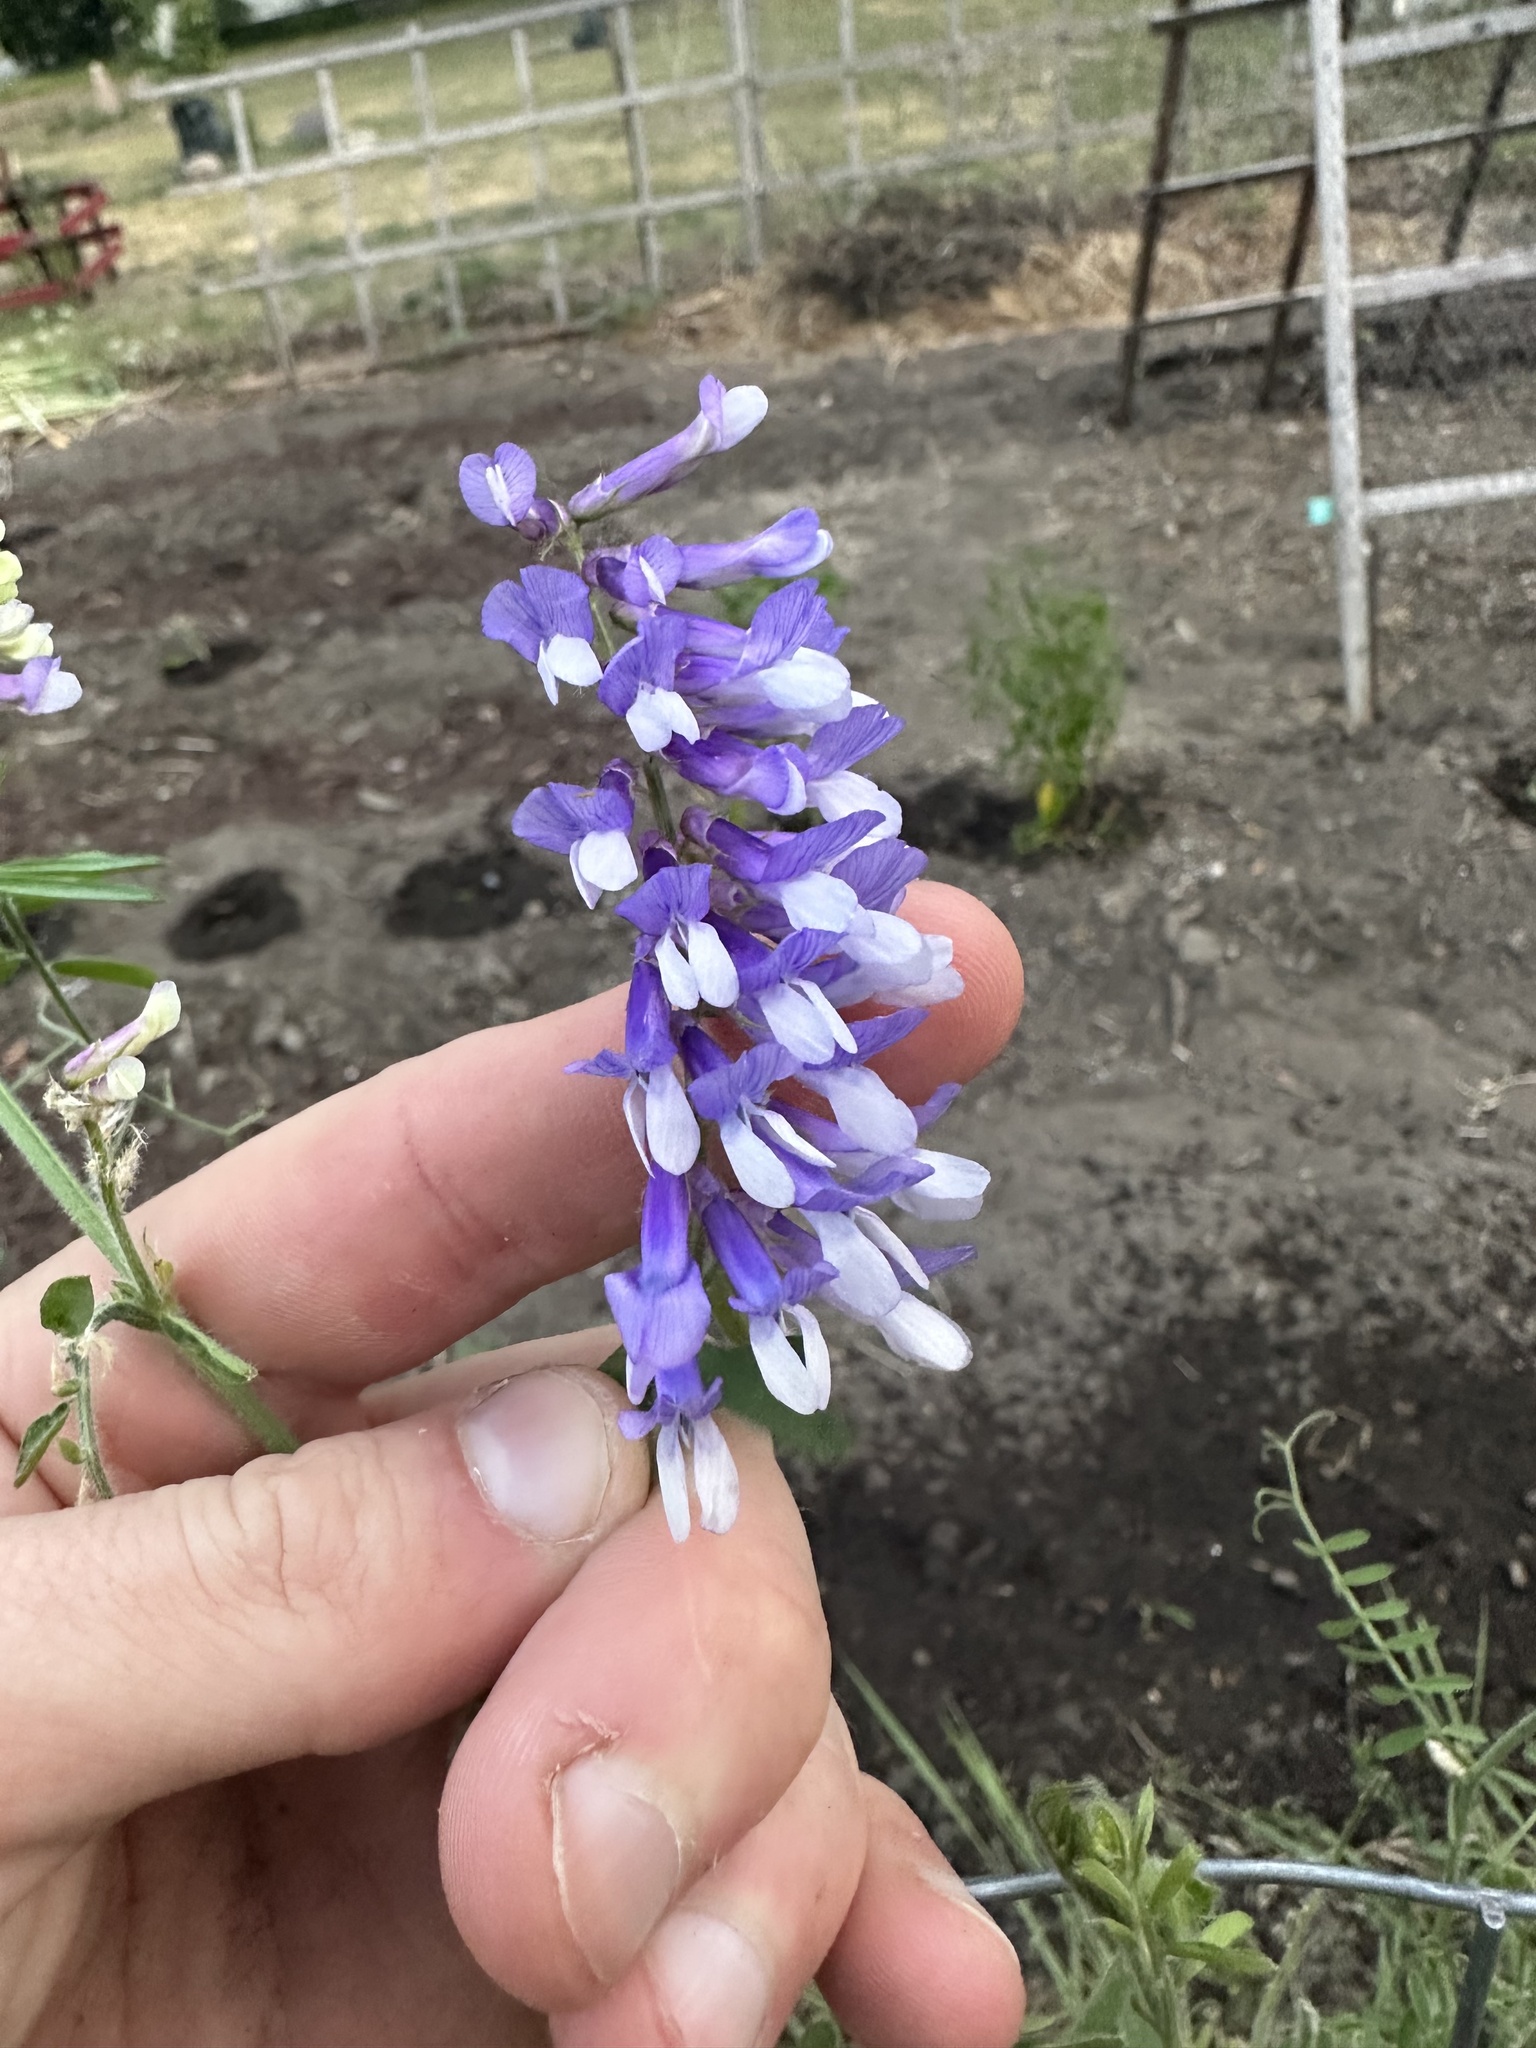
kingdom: Plantae
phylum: Tracheophyta
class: Magnoliopsida
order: Fabales
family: Fabaceae
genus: Vicia
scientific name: Vicia villosa
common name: Fodder vetch
